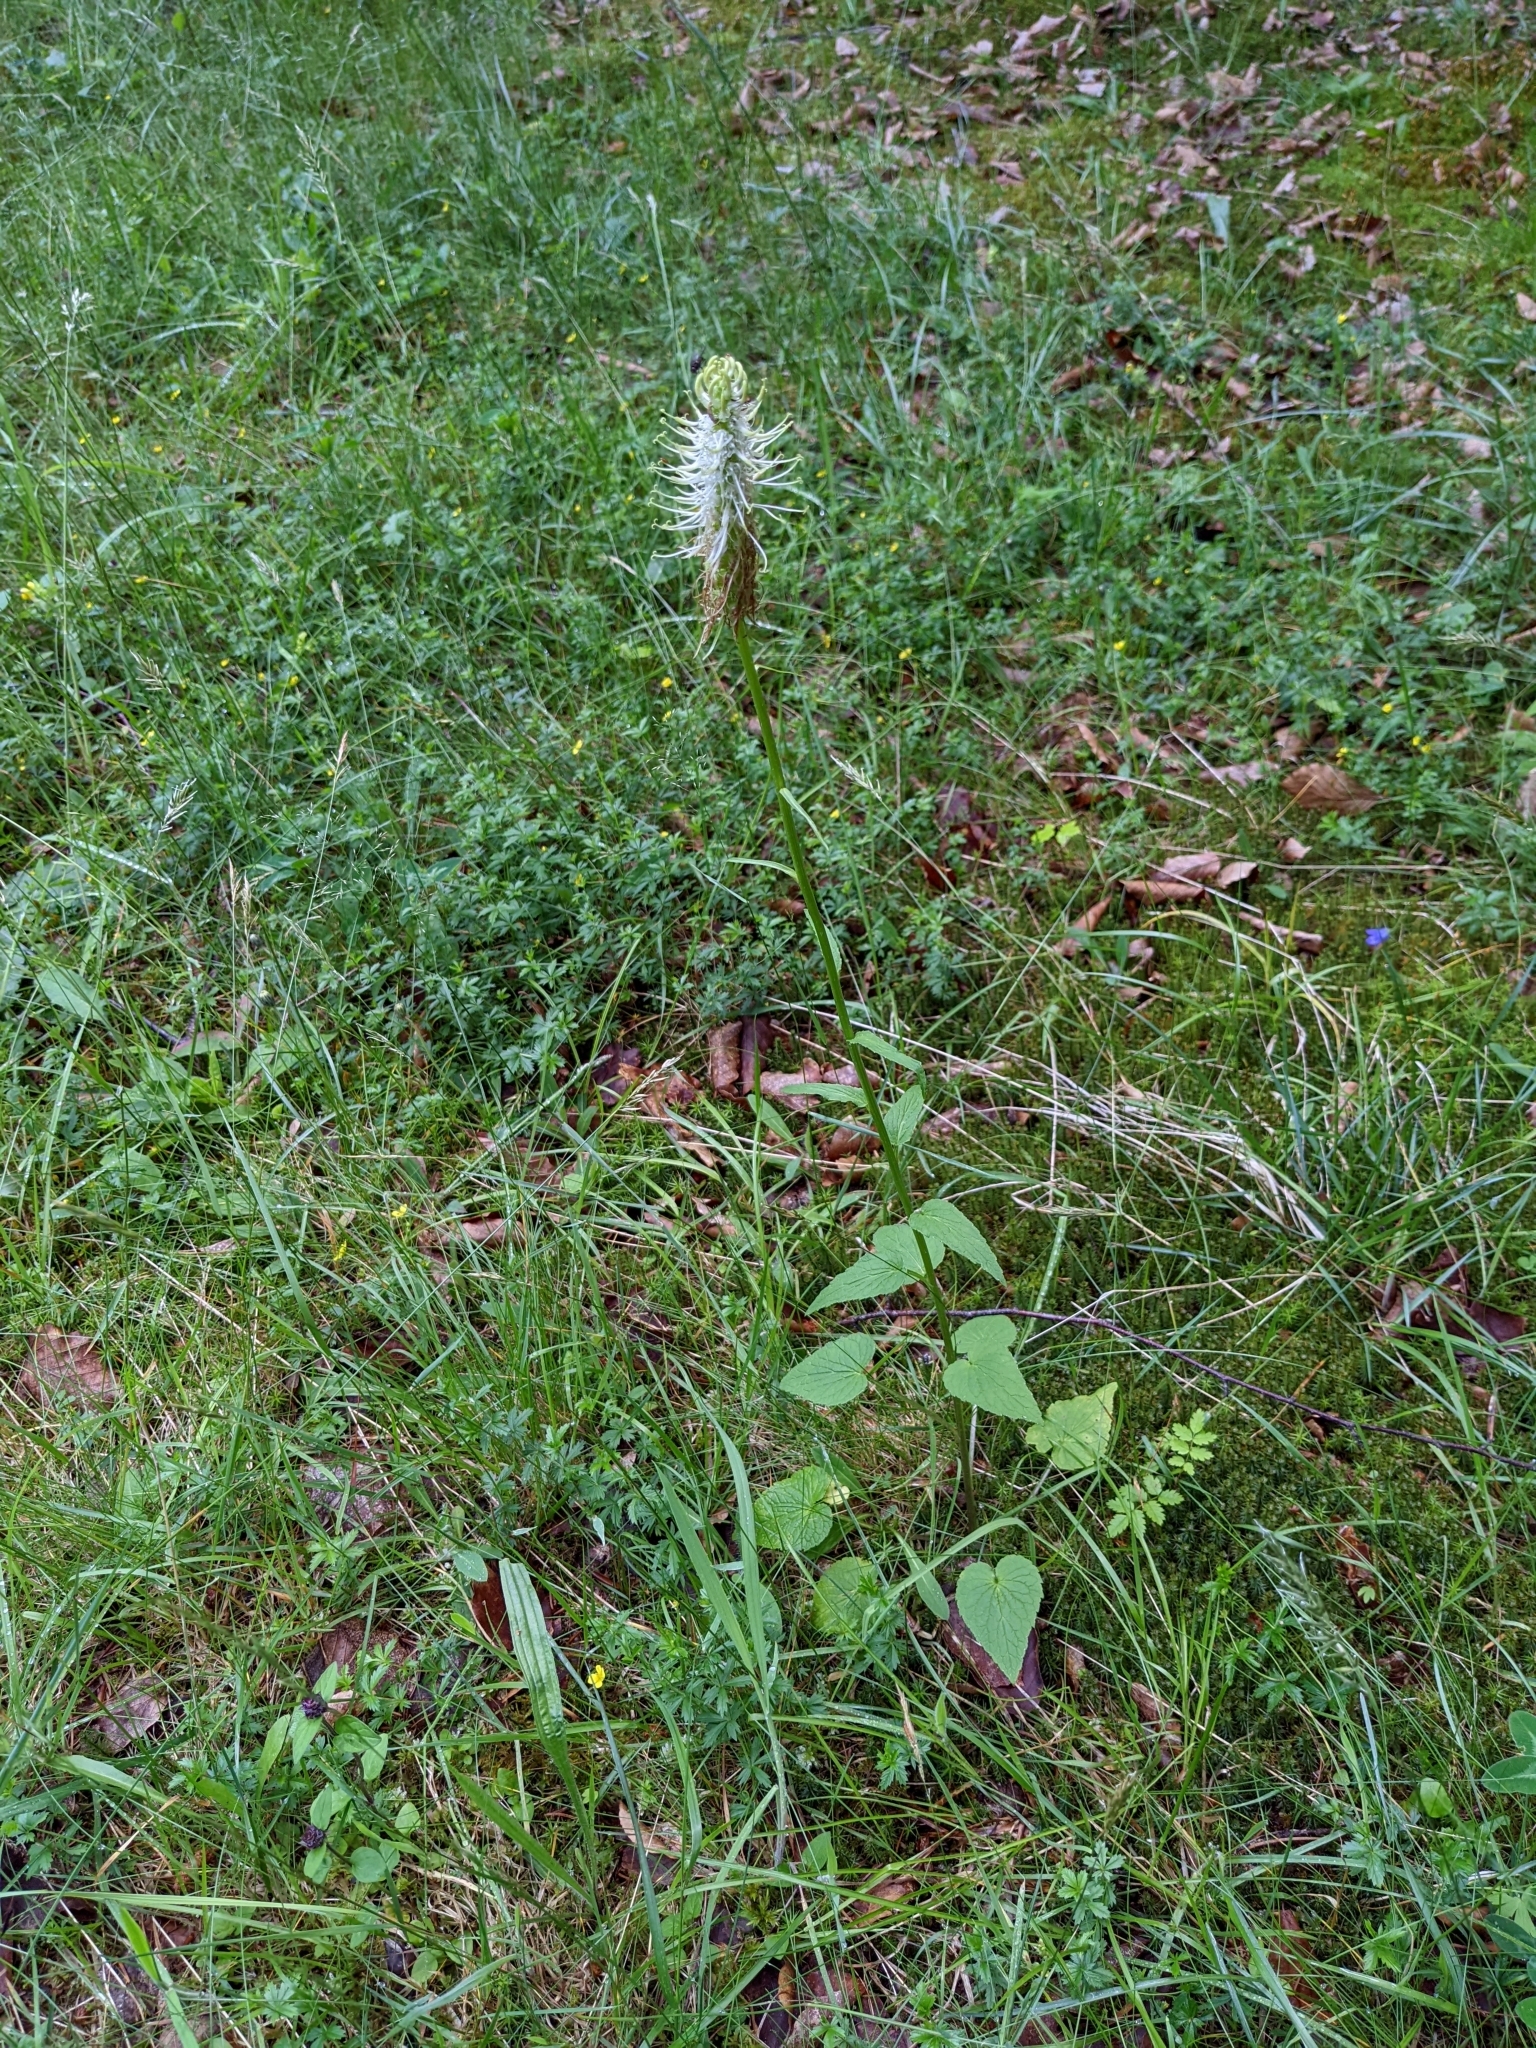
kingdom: Plantae
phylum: Tracheophyta
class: Magnoliopsida
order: Asterales
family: Campanulaceae
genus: Phyteuma
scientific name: Phyteuma spicatum
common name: Spiked rampion
